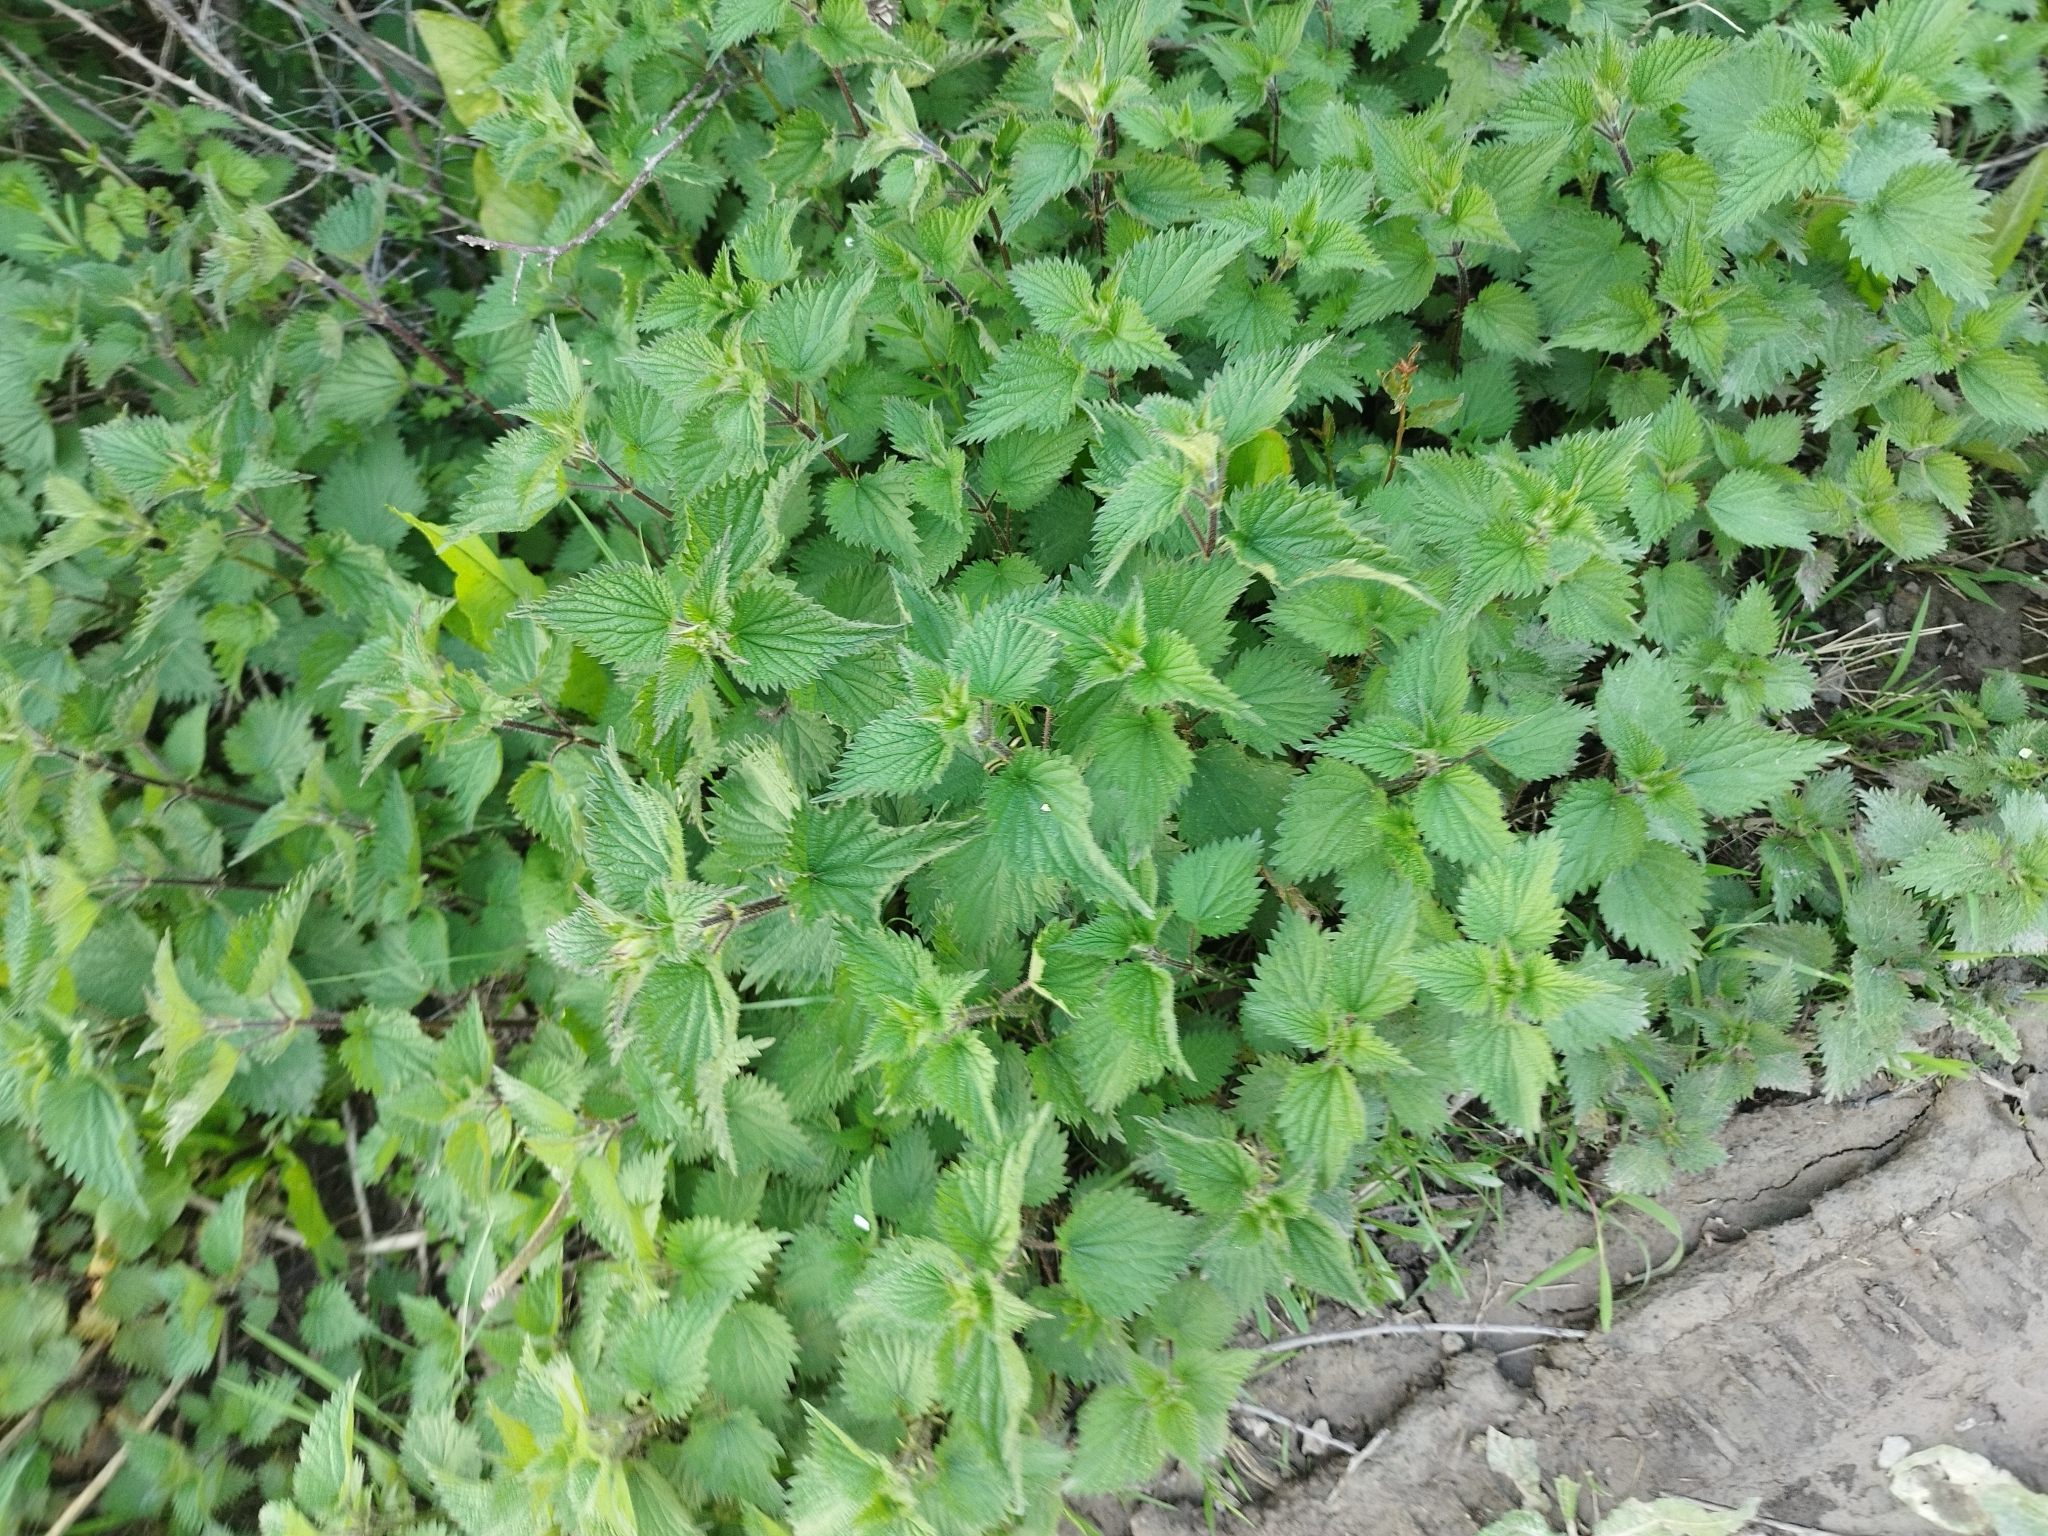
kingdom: Plantae
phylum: Tracheophyta
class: Magnoliopsida
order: Rosales
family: Urticaceae
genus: Urtica
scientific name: Urtica dioica
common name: Common nettle
